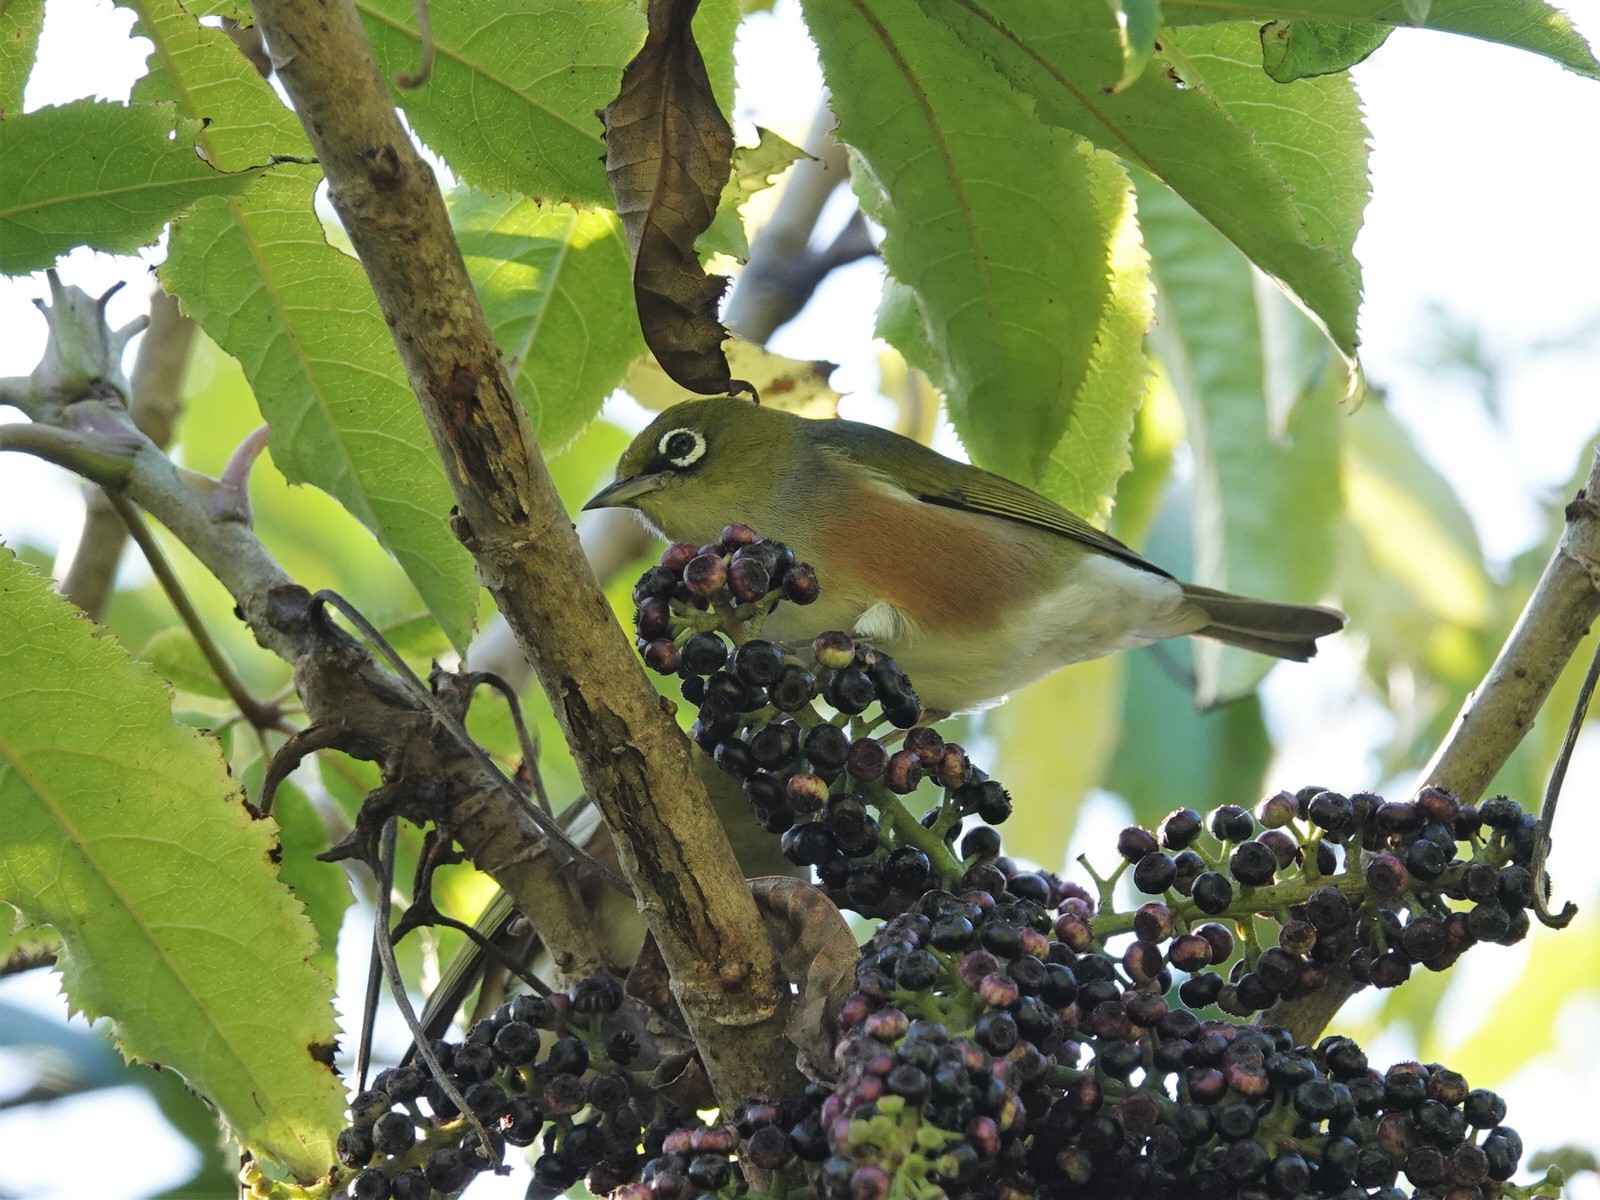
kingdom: Animalia
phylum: Chordata
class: Aves
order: Passeriformes
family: Zosteropidae
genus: Zosterops
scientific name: Zosterops lateralis
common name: Silvereye
